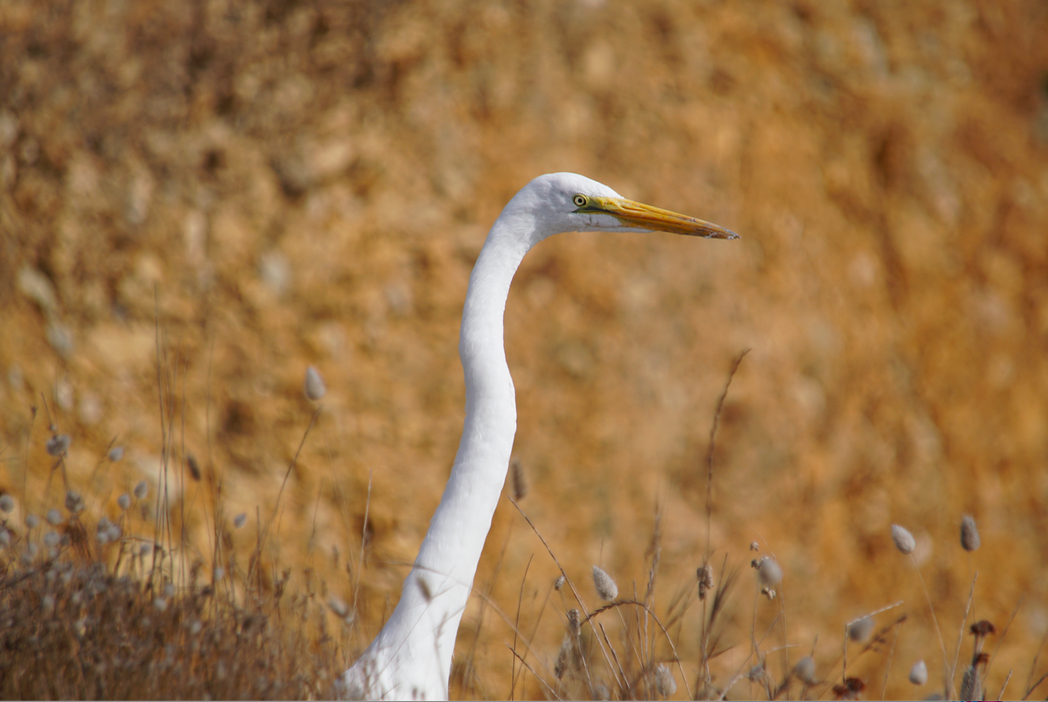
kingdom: Animalia
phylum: Chordata
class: Aves
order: Pelecaniformes
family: Ardeidae
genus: Ardea
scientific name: Ardea alba
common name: Great egret
